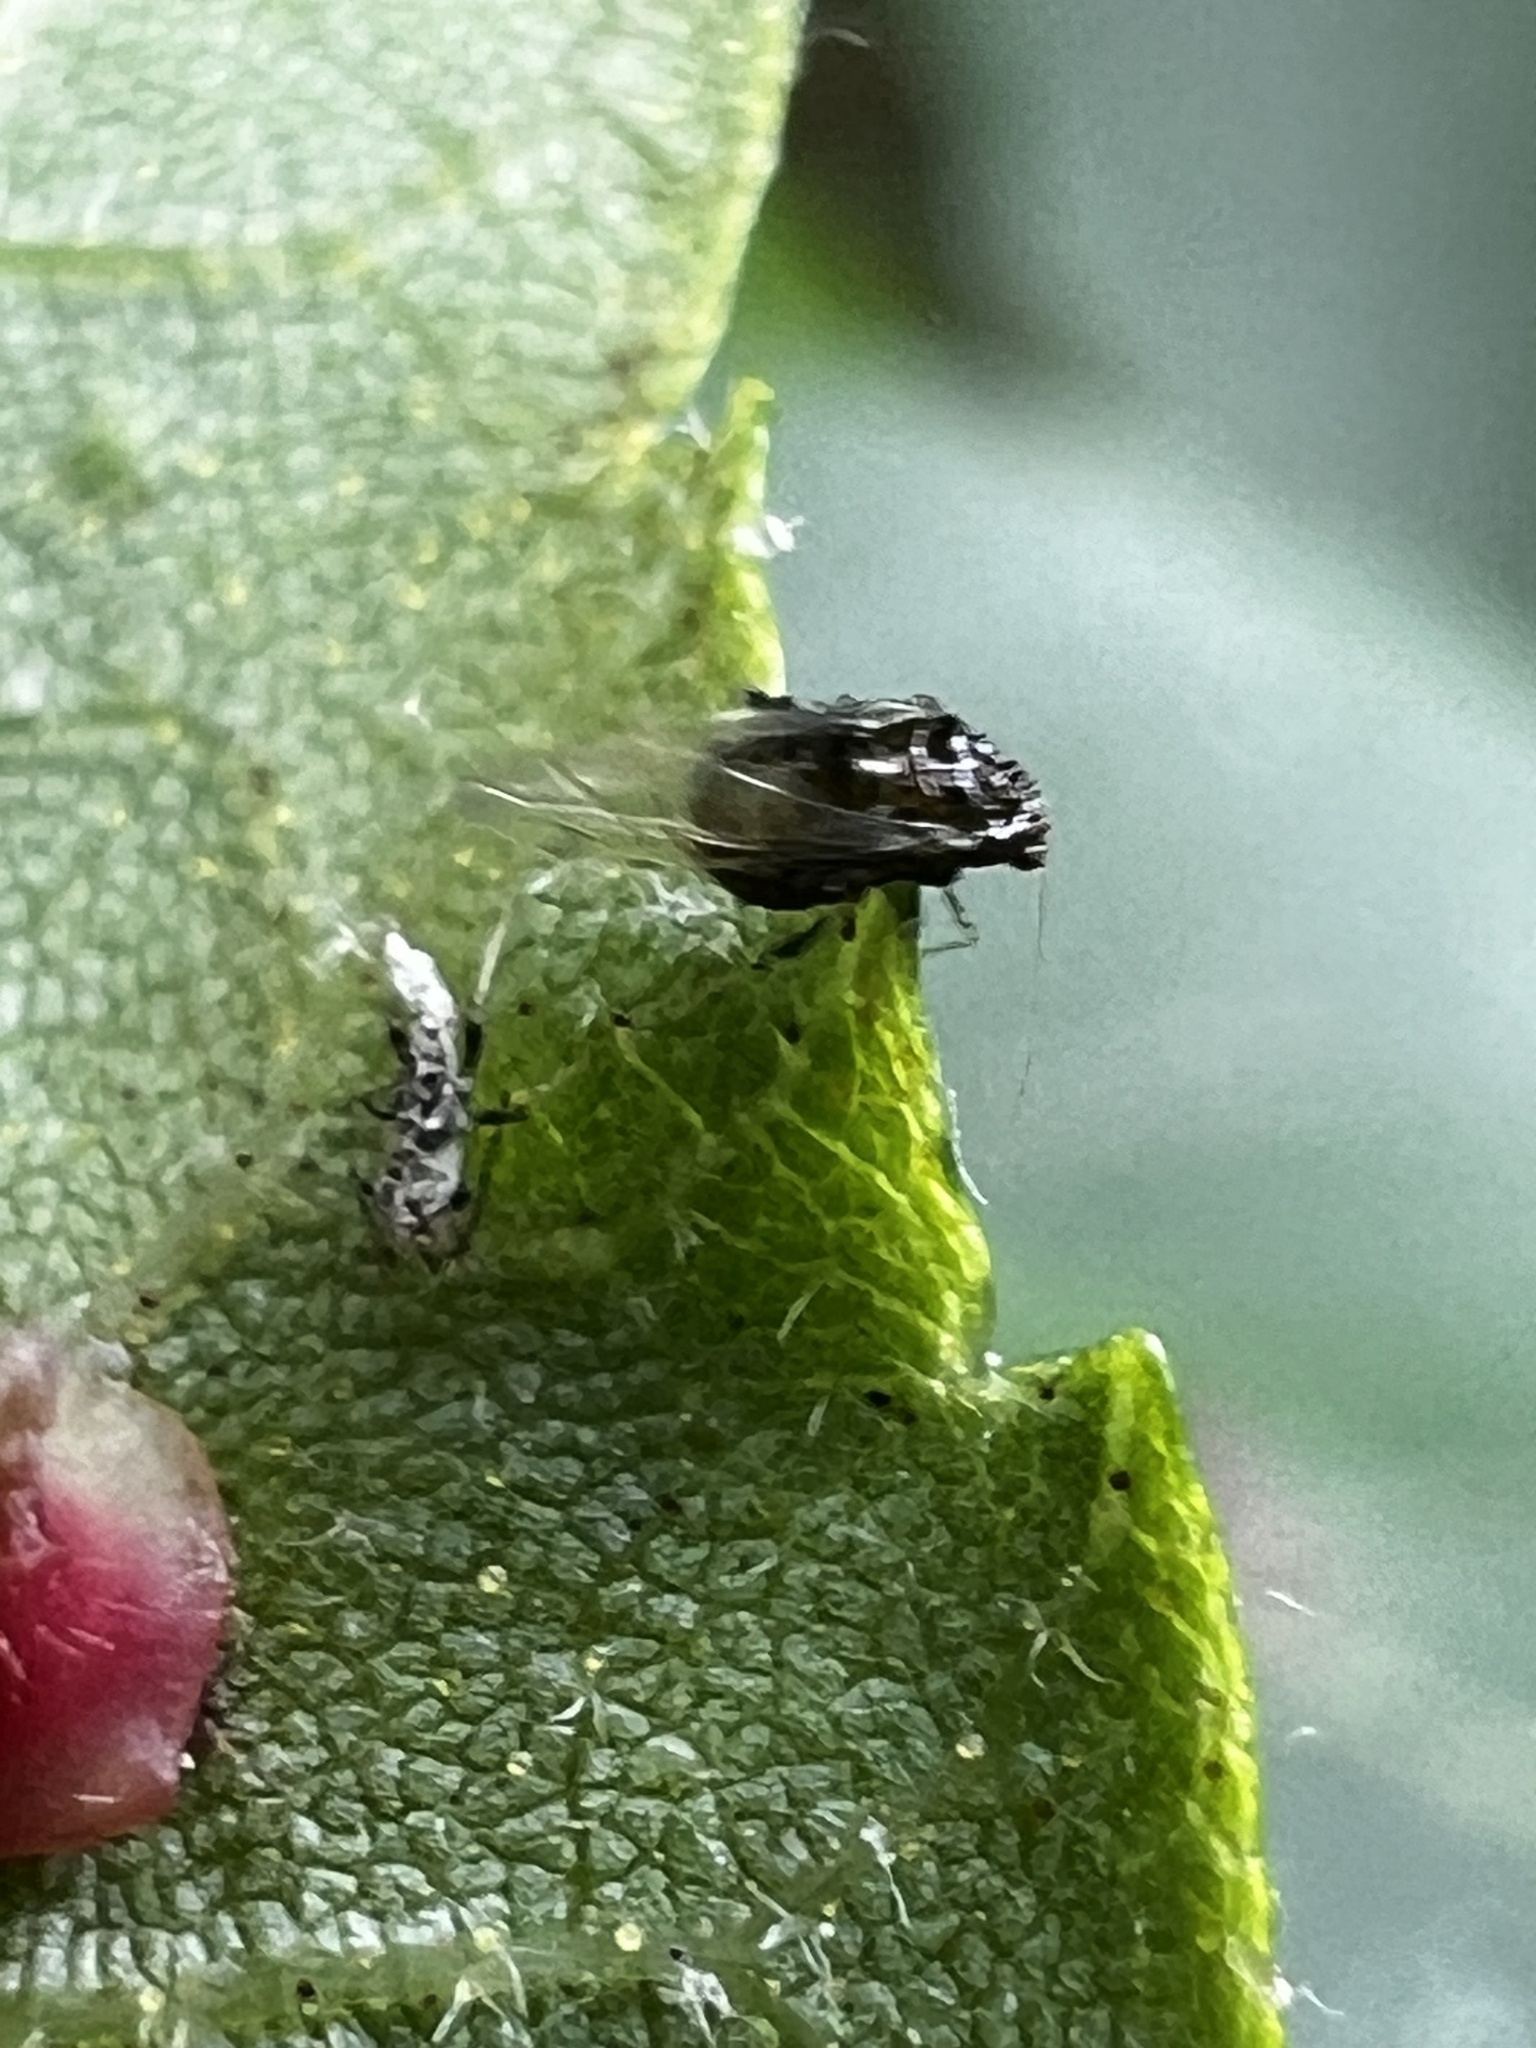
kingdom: Animalia
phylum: Arthropoda
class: Insecta
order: Diptera
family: Cecidomyiidae
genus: Caryomyia
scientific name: Caryomyia marginata
